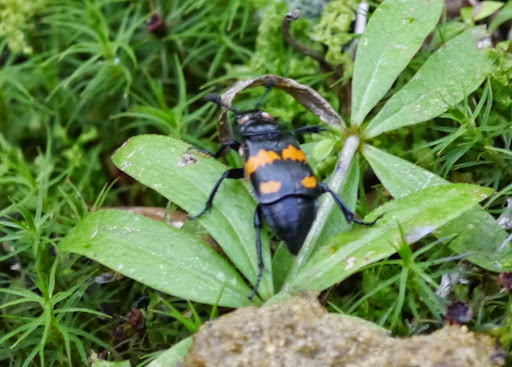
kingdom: Animalia
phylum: Arthropoda
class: Insecta
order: Coleoptera
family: Staphylinidae
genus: Nicrophorus
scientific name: Nicrophorus defodiens
